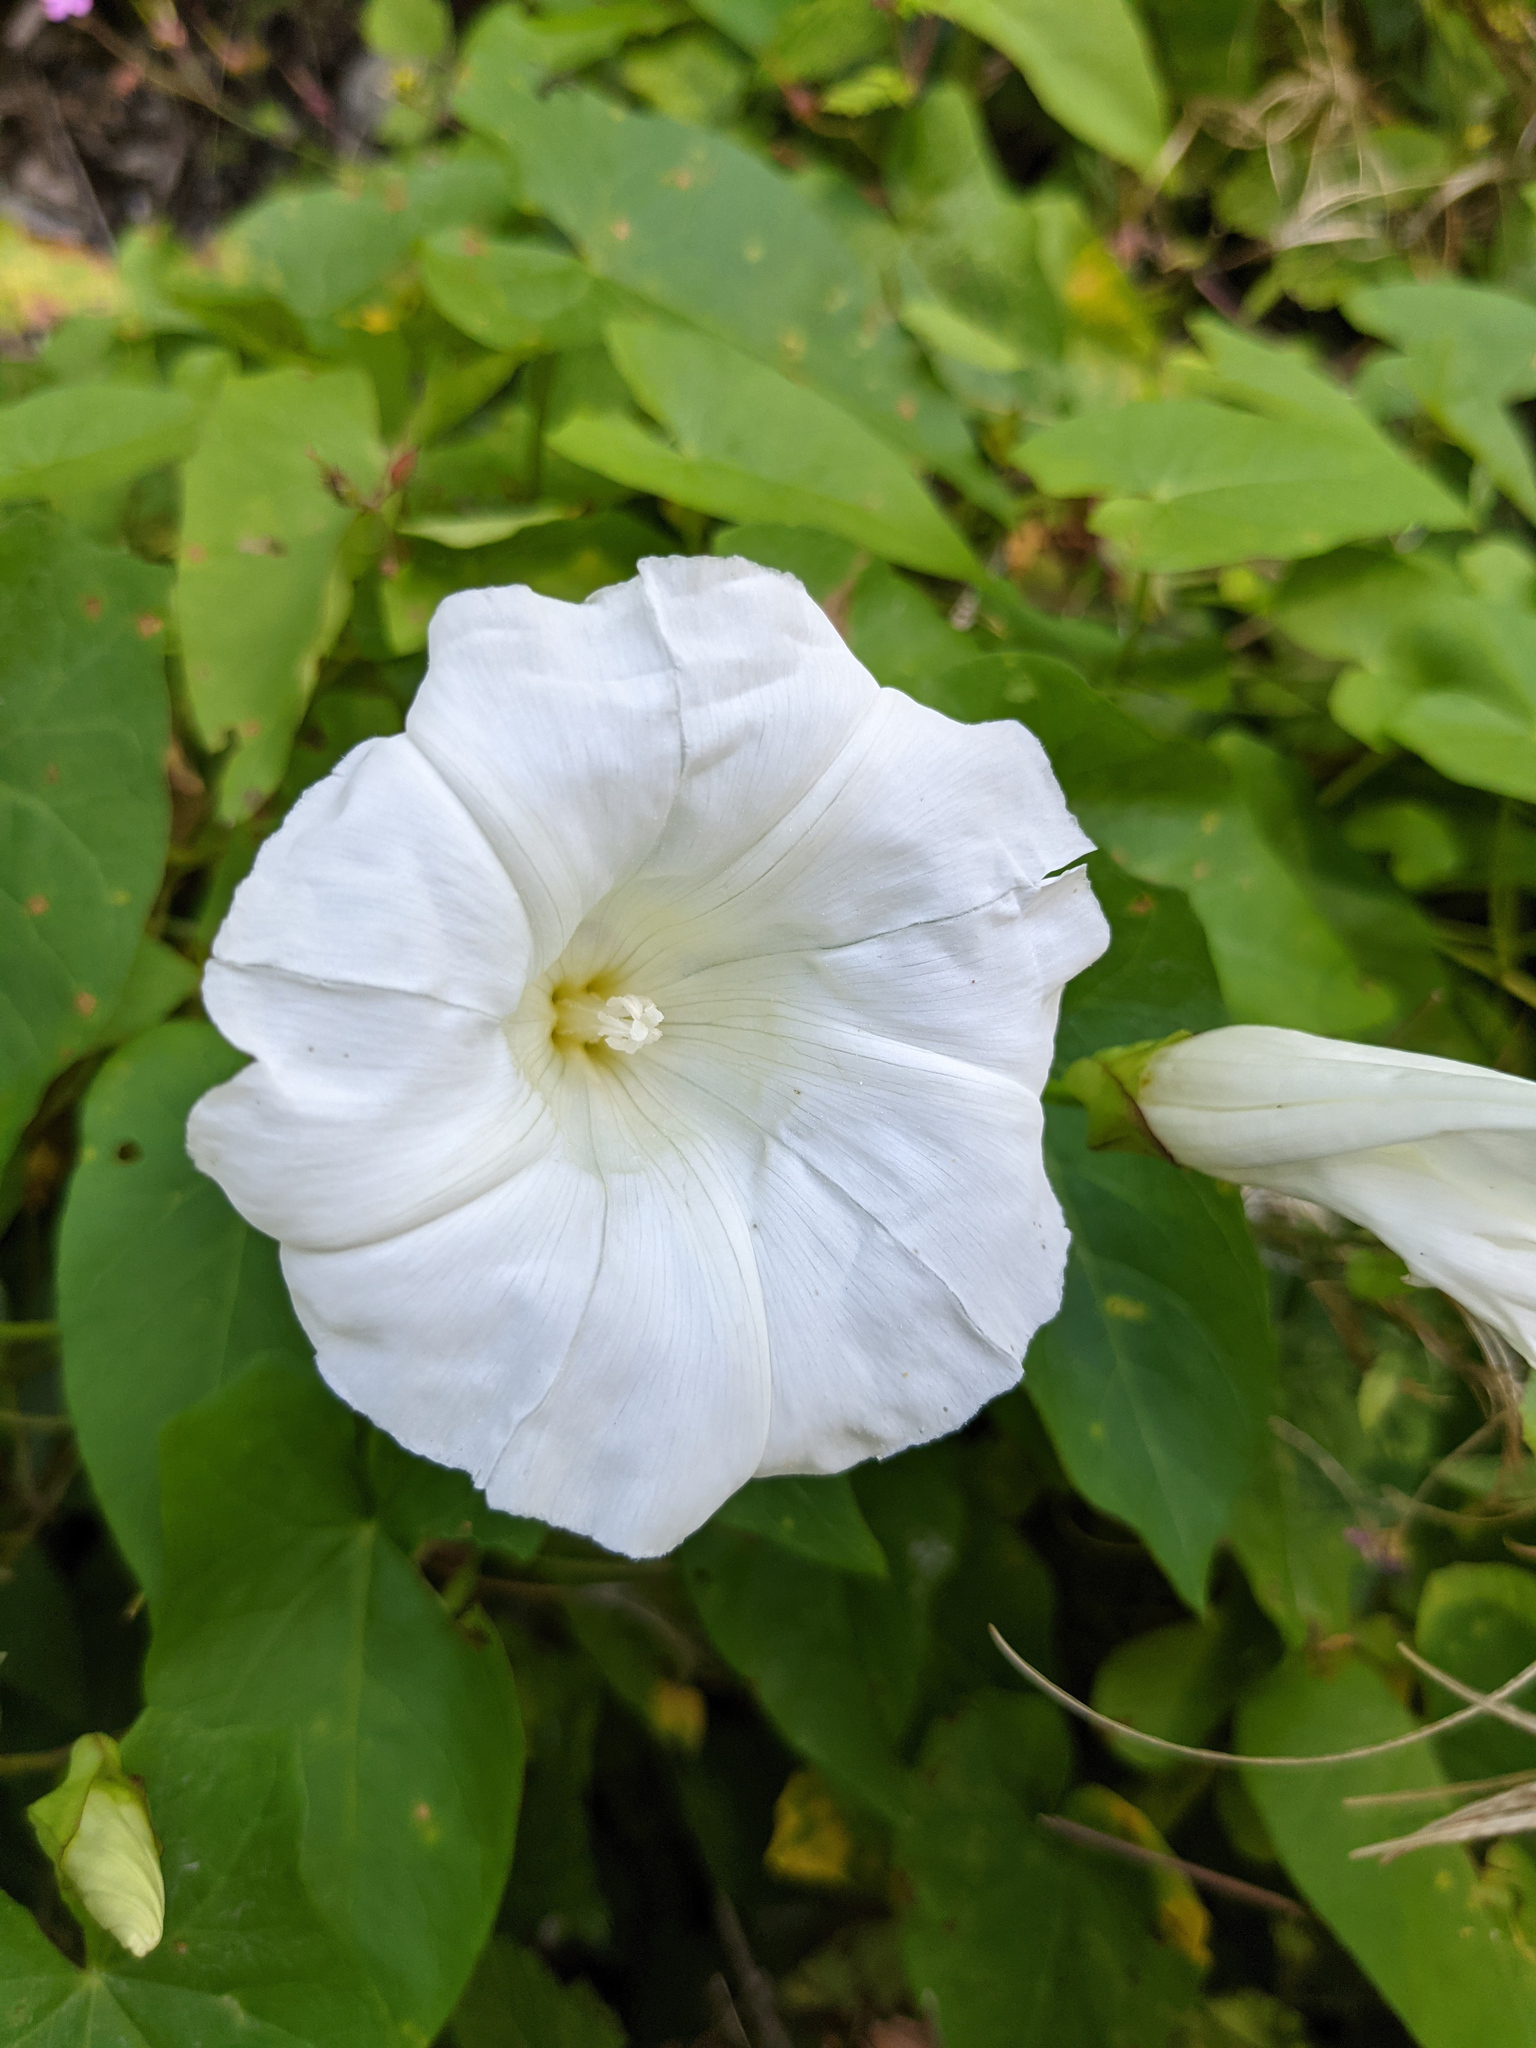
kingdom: Plantae
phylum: Tracheophyta
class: Magnoliopsida
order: Solanales
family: Convolvulaceae
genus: Calystegia
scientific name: Calystegia sepium
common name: Hedge bindweed
